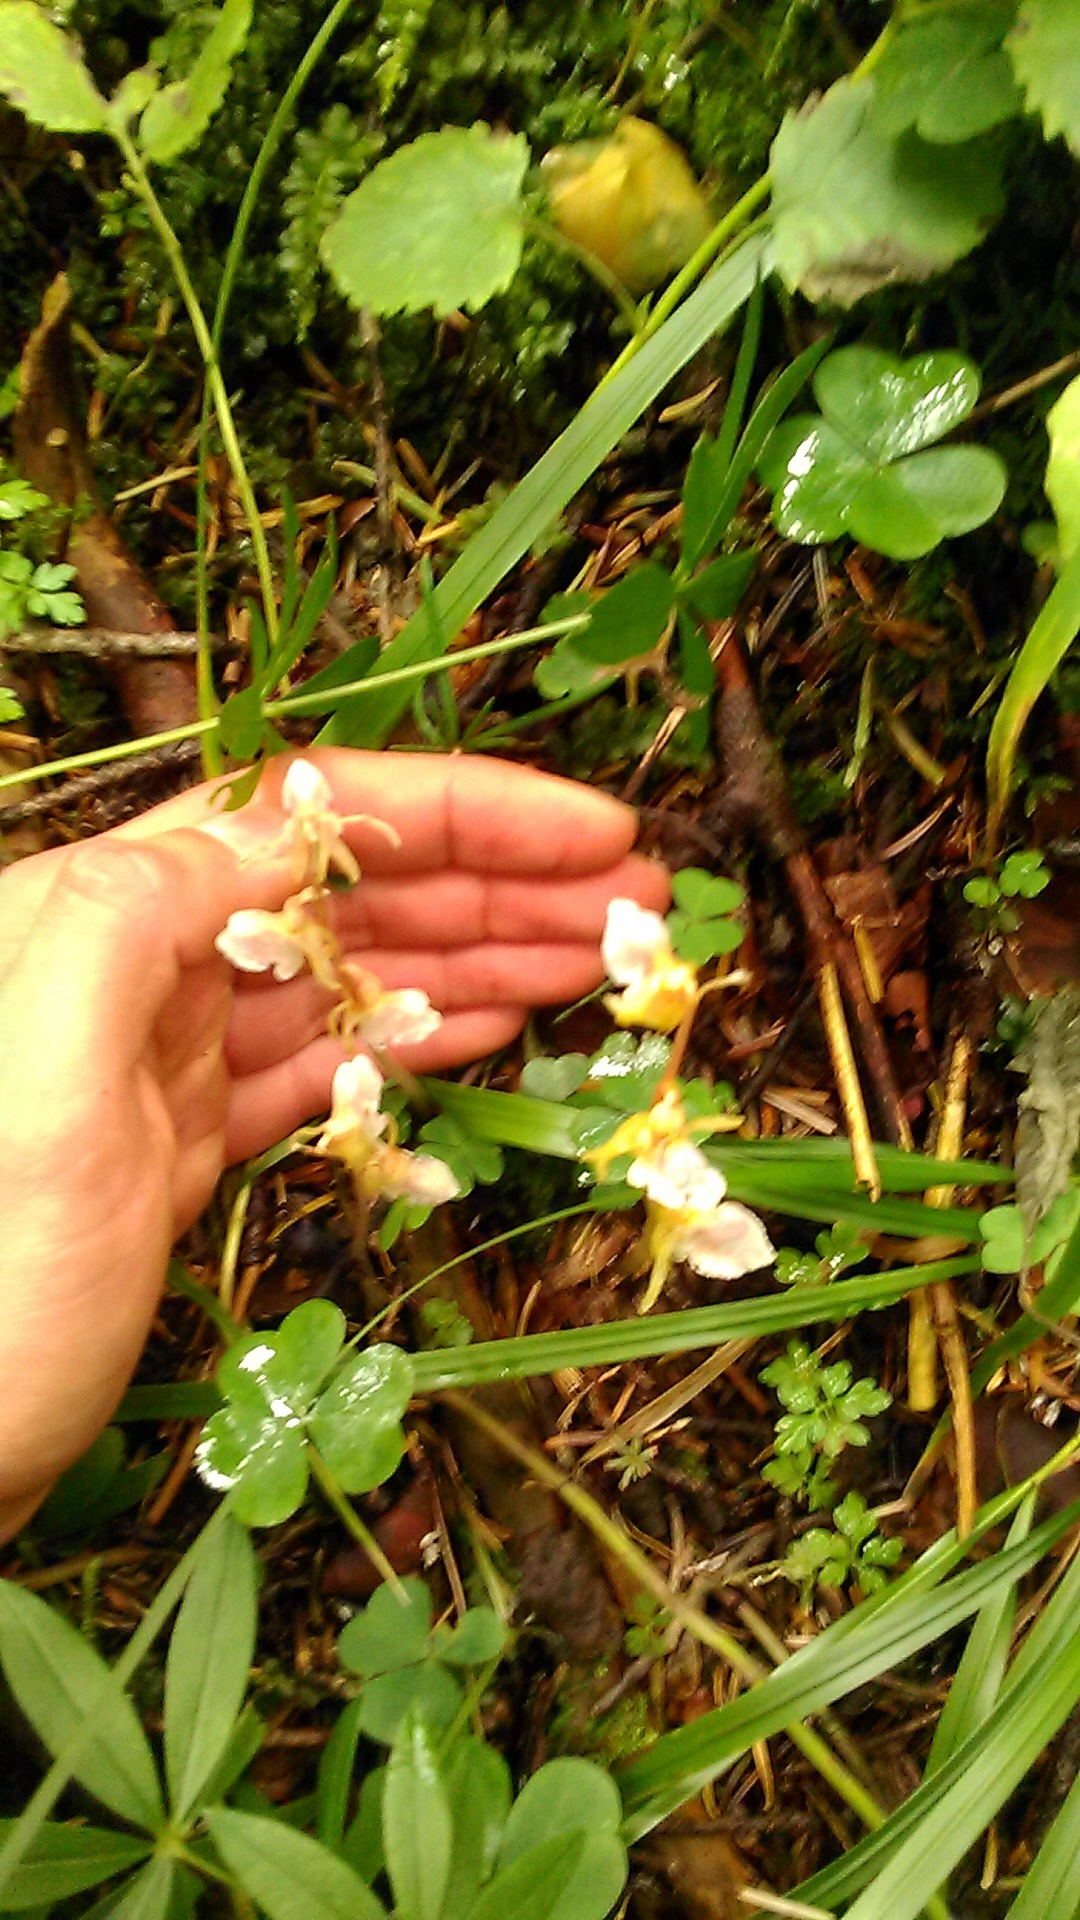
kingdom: Plantae
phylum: Tracheophyta
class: Liliopsida
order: Asparagales
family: Orchidaceae
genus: Epipogium
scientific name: Epipogium aphyllum
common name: Ghost orchid
